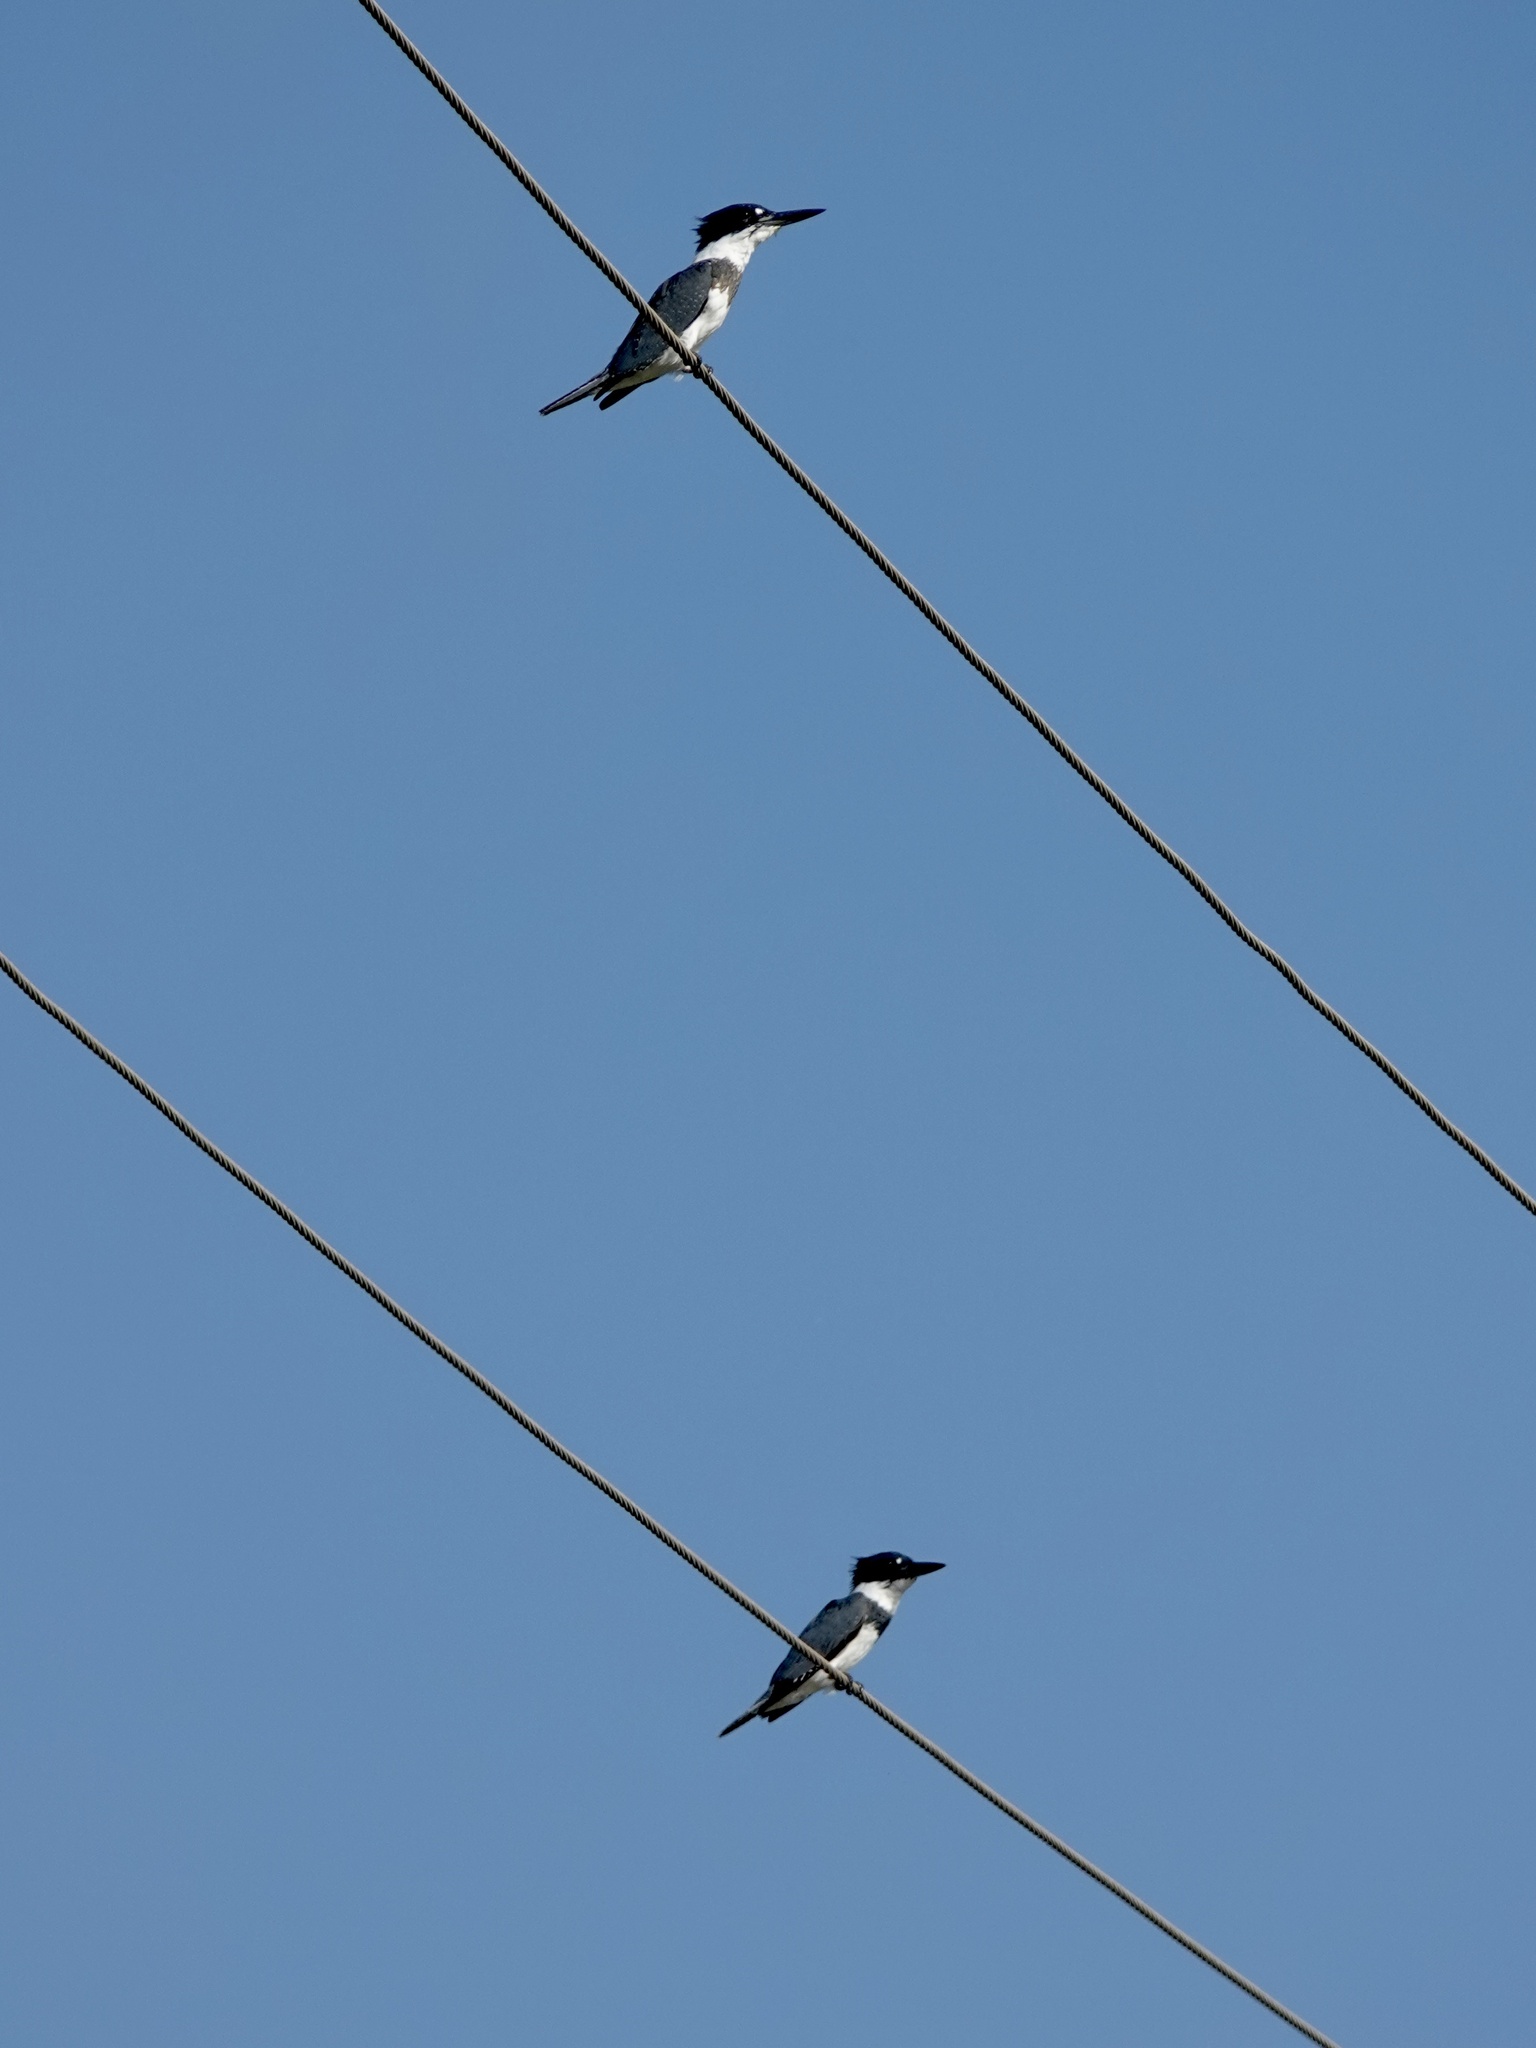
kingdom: Animalia
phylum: Chordata
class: Aves
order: Coraciiformes
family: Alcedinidae
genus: Megaceryle
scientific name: Megaceryle alcyon
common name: Belted kingfisher
